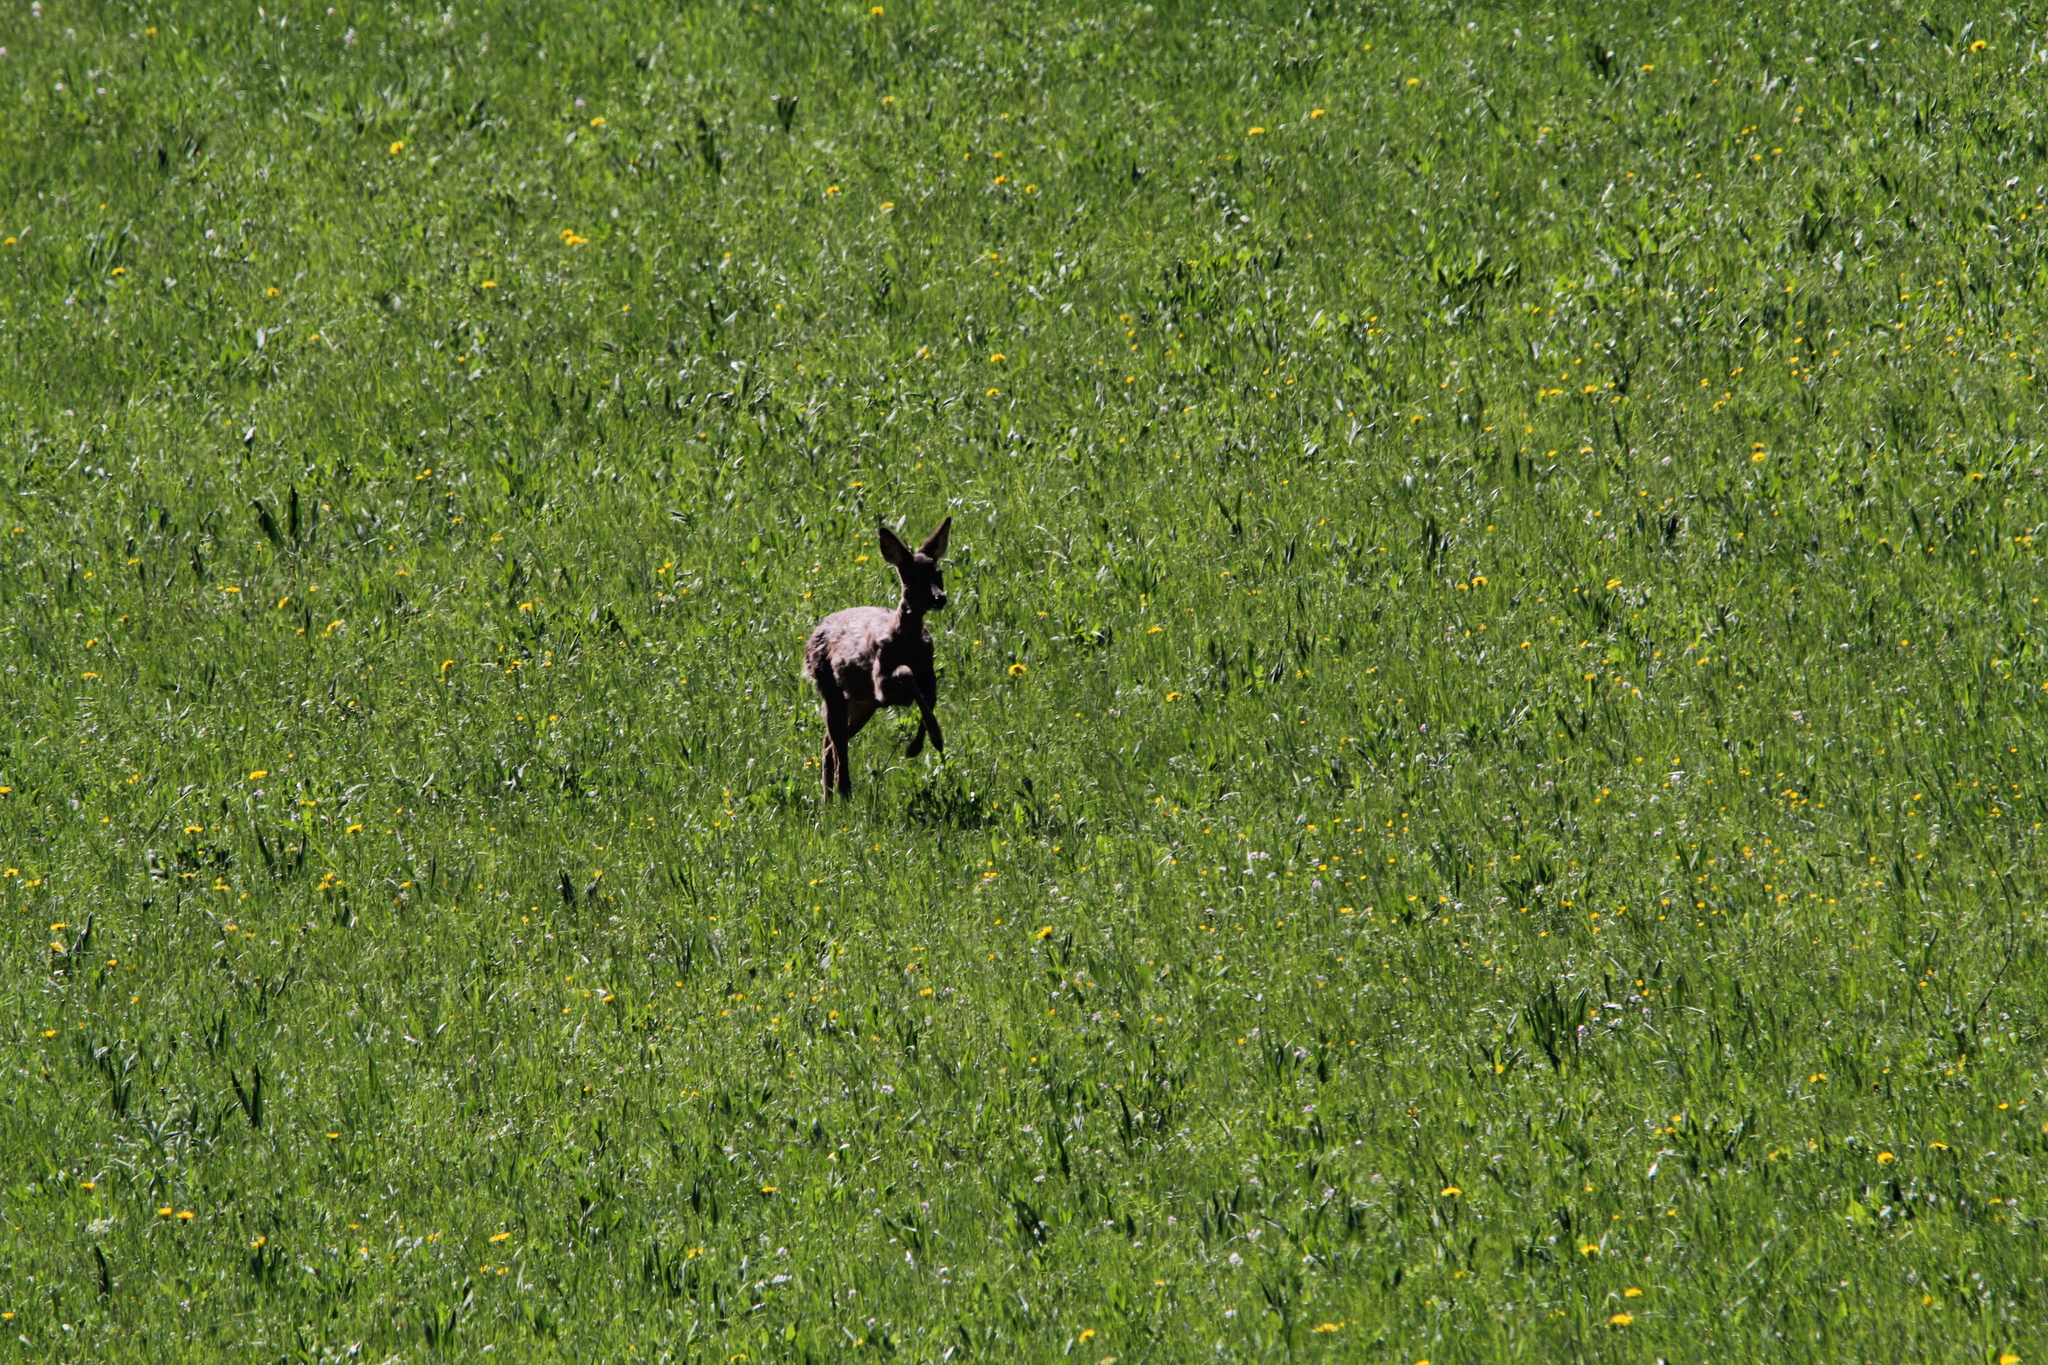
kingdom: Animalia
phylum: Chordata
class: Mammalia
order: Artiodactyla
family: Cervidae
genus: Capreolus
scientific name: Capreolus capreolus
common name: Western roe deer
